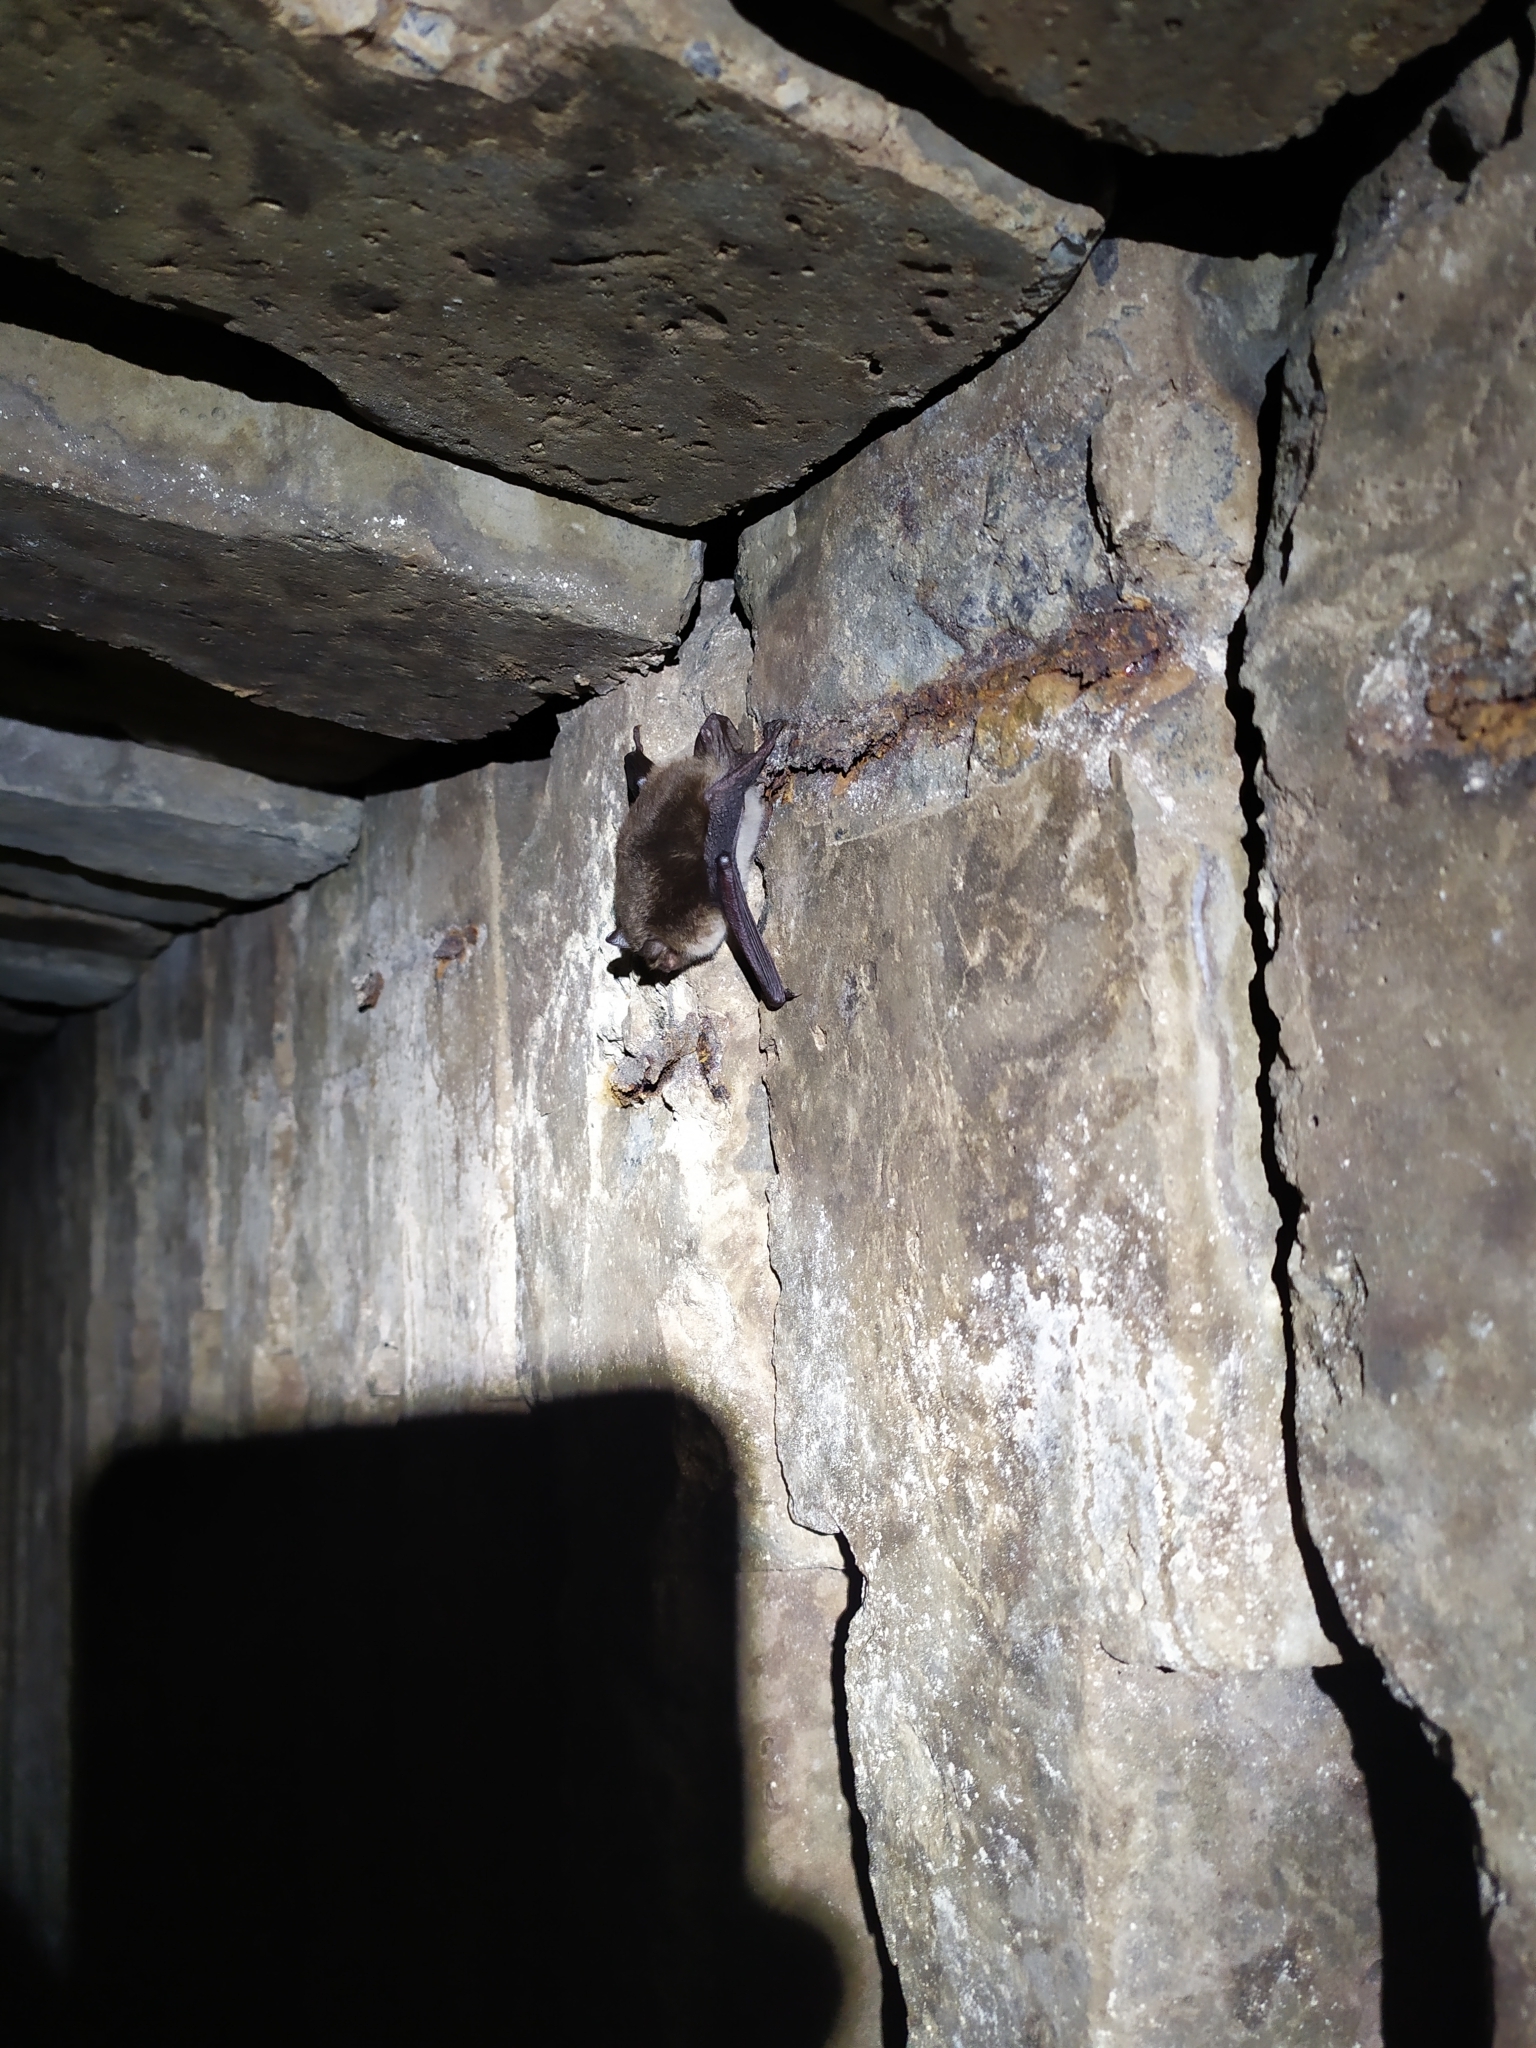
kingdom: Animalia
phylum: Chordata
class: Mammalia
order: Chiroptera
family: Vespertilionidae
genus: Myotis
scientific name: Myotis daubentonii
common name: Daubenton's myotis
